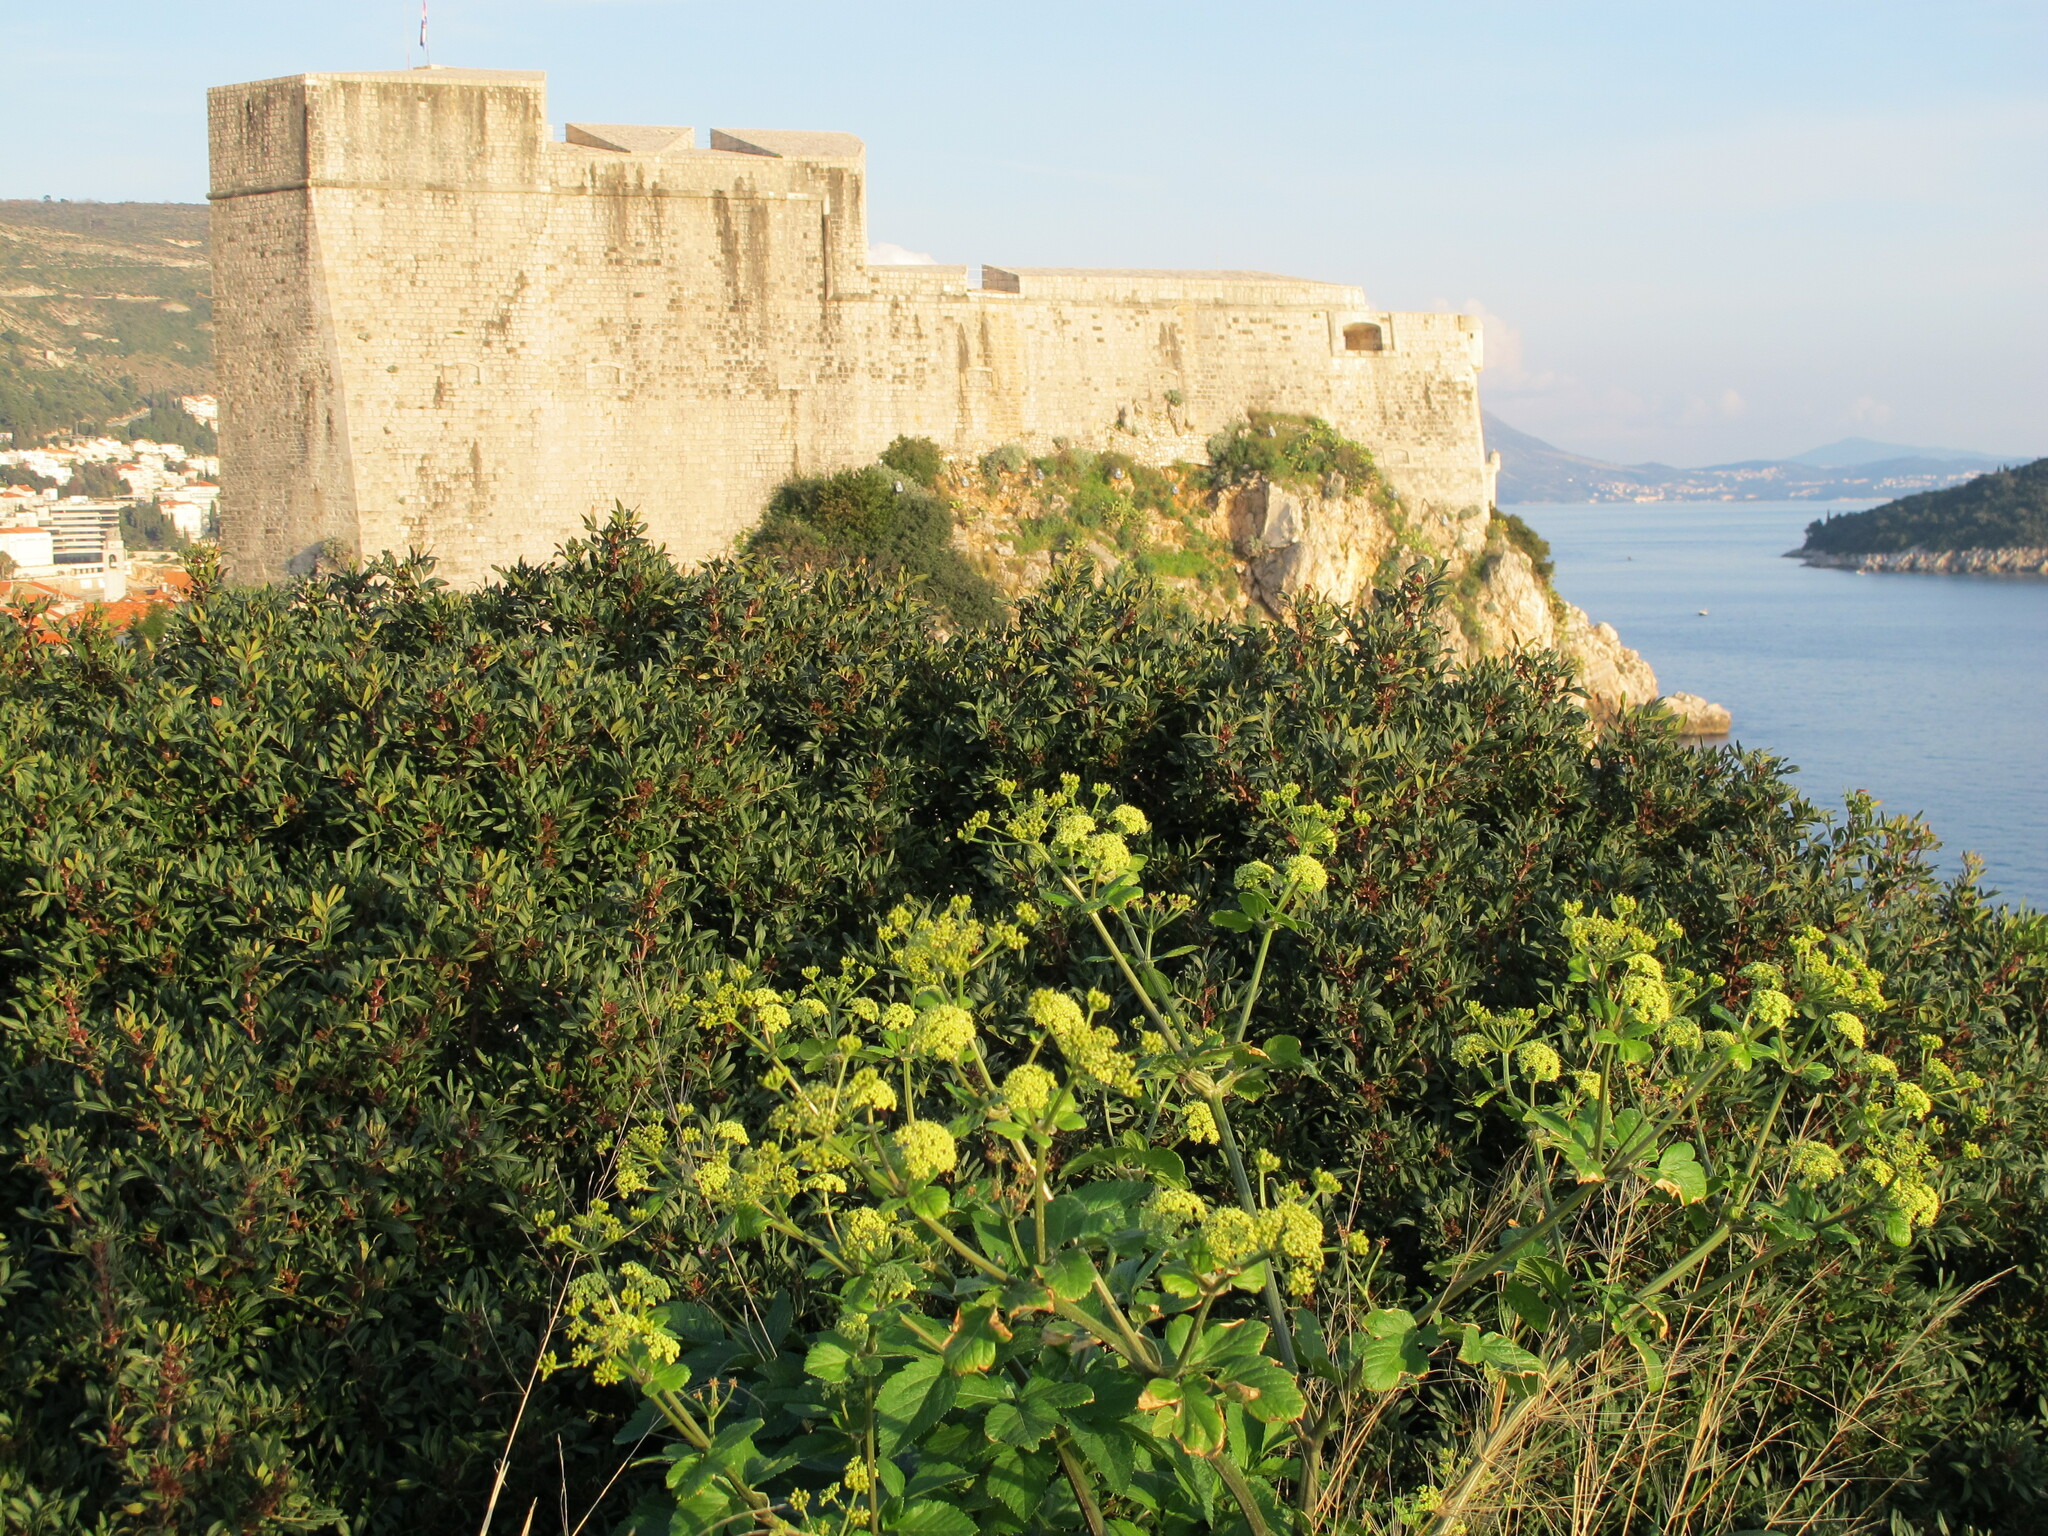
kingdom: Plantae
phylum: Tracheophyta
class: Magnoliopsida
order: Apiales
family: Apiaceae
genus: Smyrnium
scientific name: Smyrnium olusatrum
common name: Alexanders
